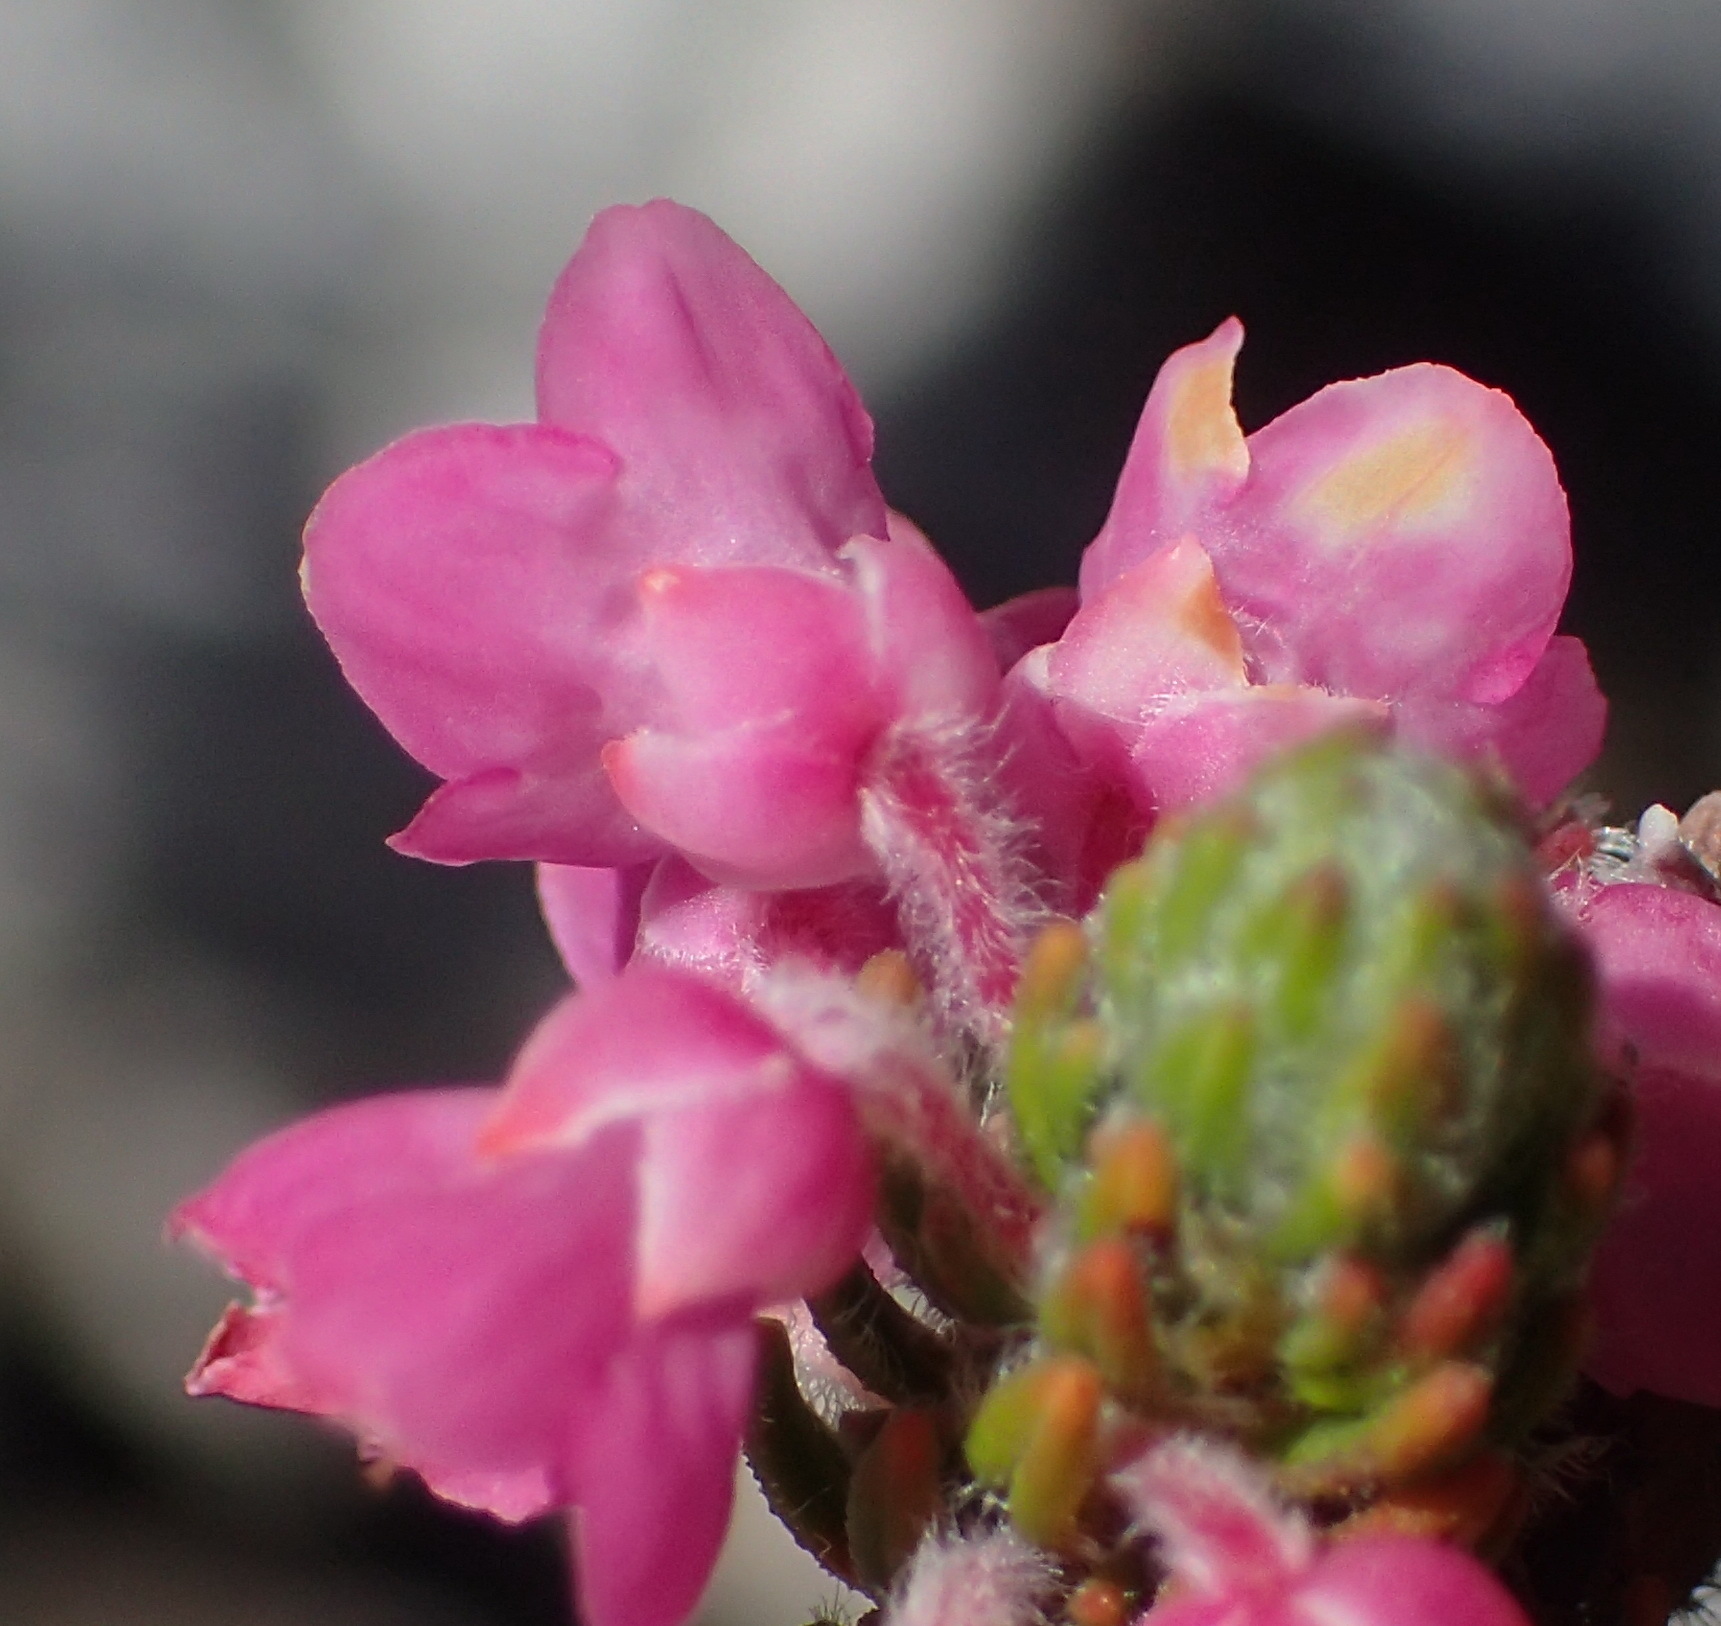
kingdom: Plantae
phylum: Tracheophyta
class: Magnoliopsida
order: Ericales
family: Ericaceae
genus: Erica
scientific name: Erica nervata
